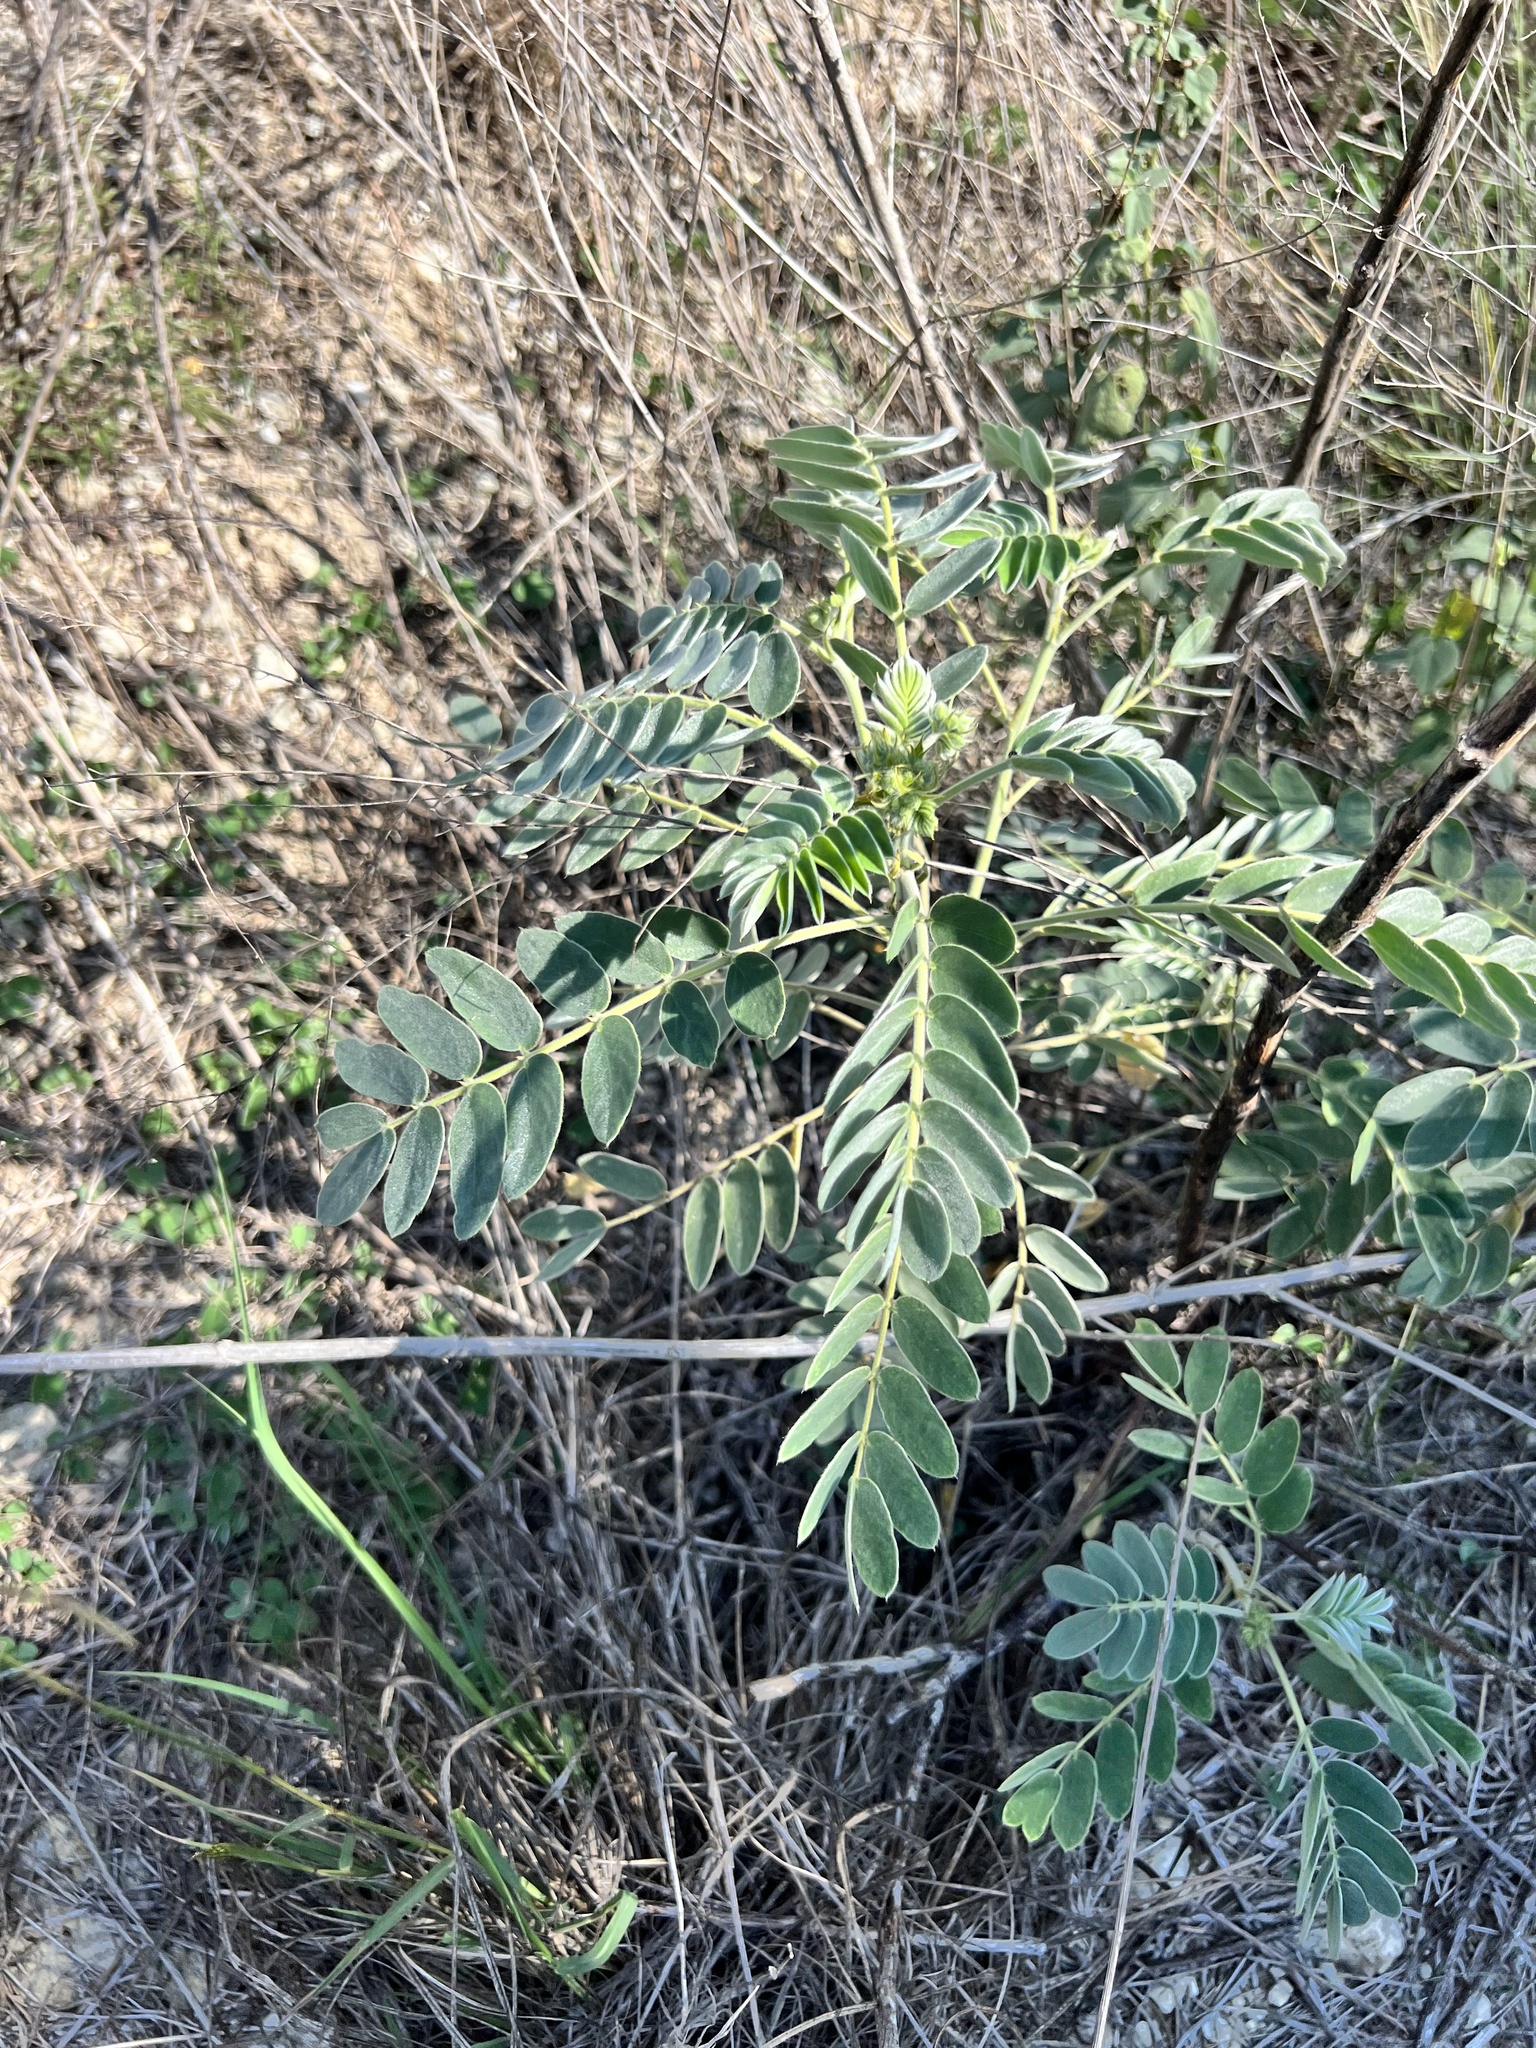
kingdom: Plantae
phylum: Tracheophyta
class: Magnoliopsida
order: Fabales
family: Fabaceae
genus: Senna
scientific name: Senna lindheimeriana
